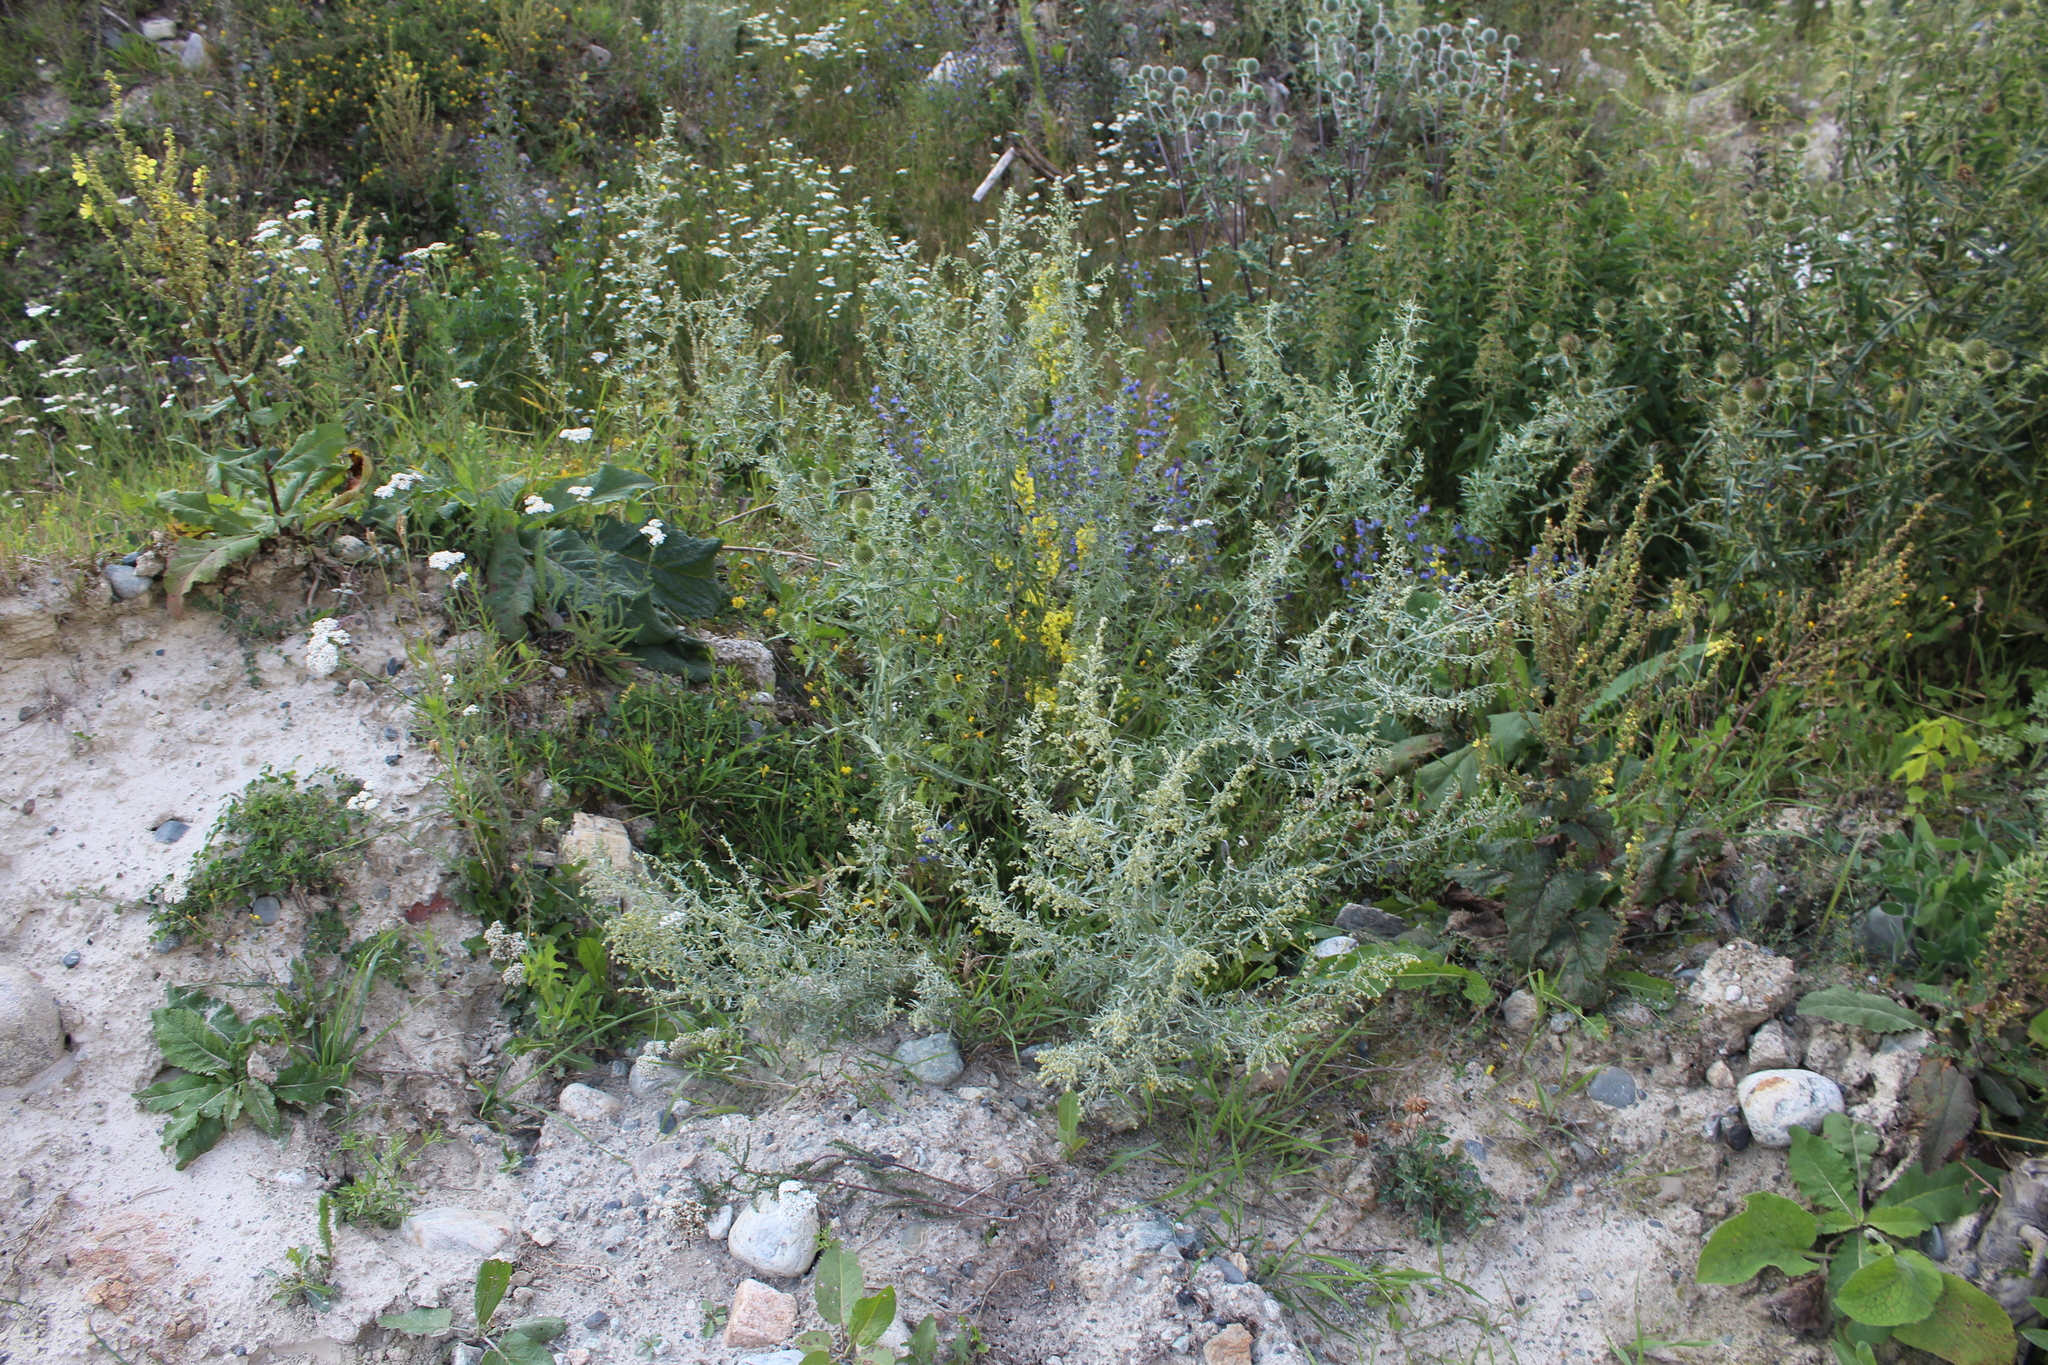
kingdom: Plantae
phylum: Tracheophyta
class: Magnoliopsida
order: Asterales
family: Asteraceae
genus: Artemisia
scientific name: Artemisia absinthium
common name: Wormwood
